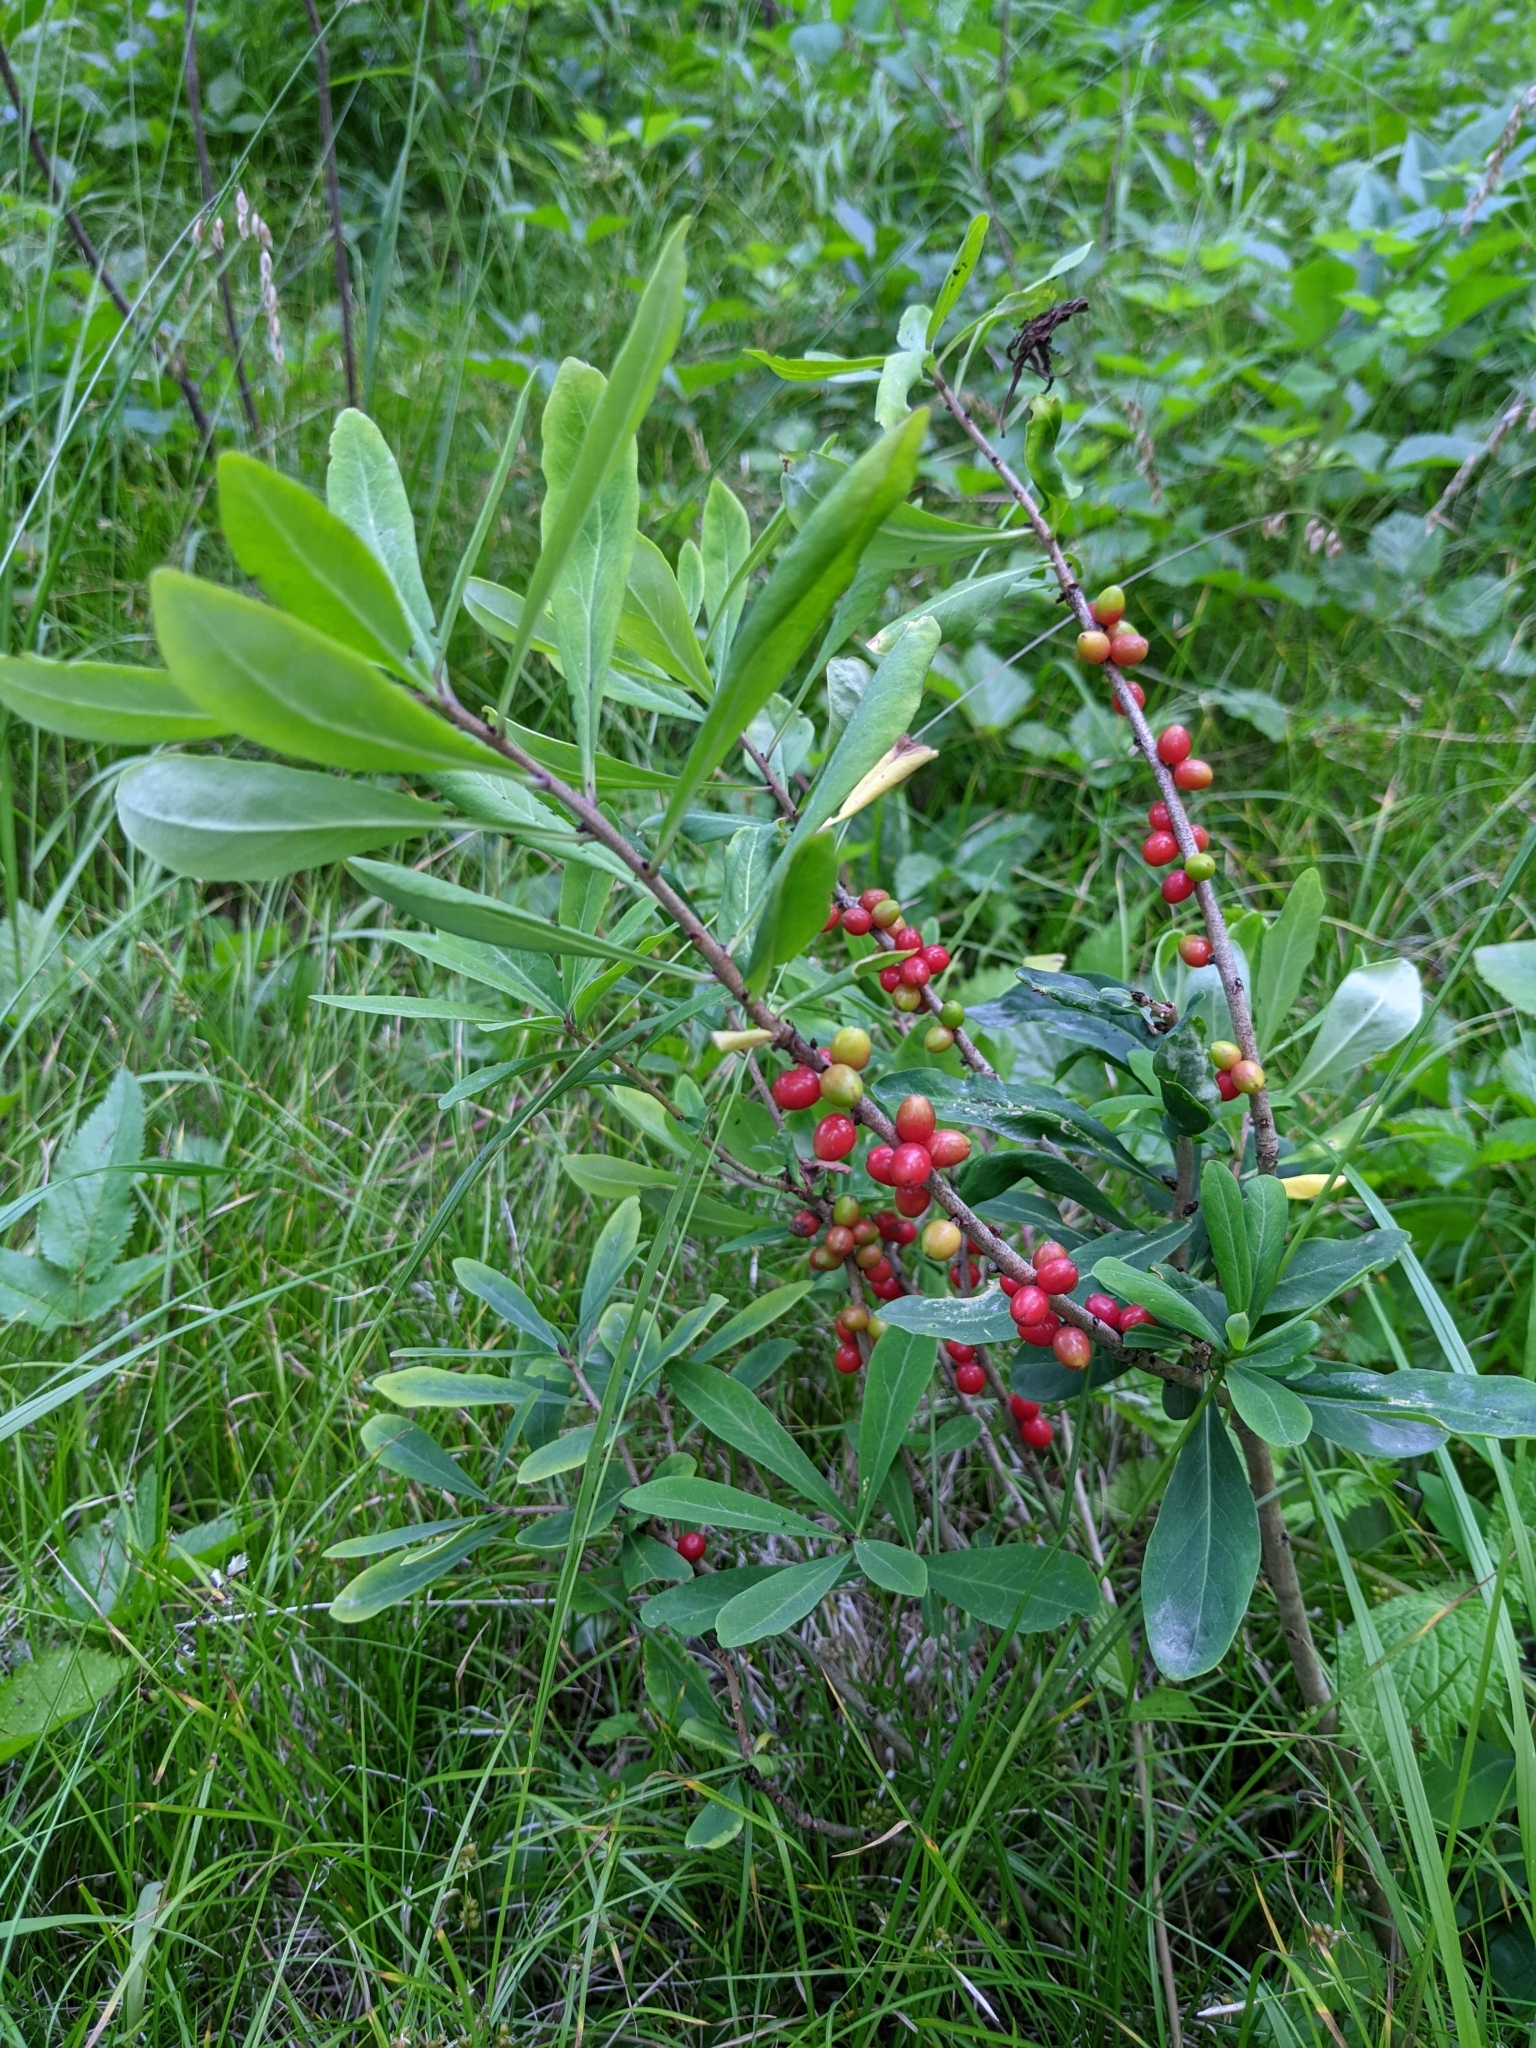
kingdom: Plantae
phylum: Tracheophyta
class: Magnoliopsida
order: Malvales
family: Thymelaeaceae
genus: Daphne
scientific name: Daphne mezereum
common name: Mezereon
